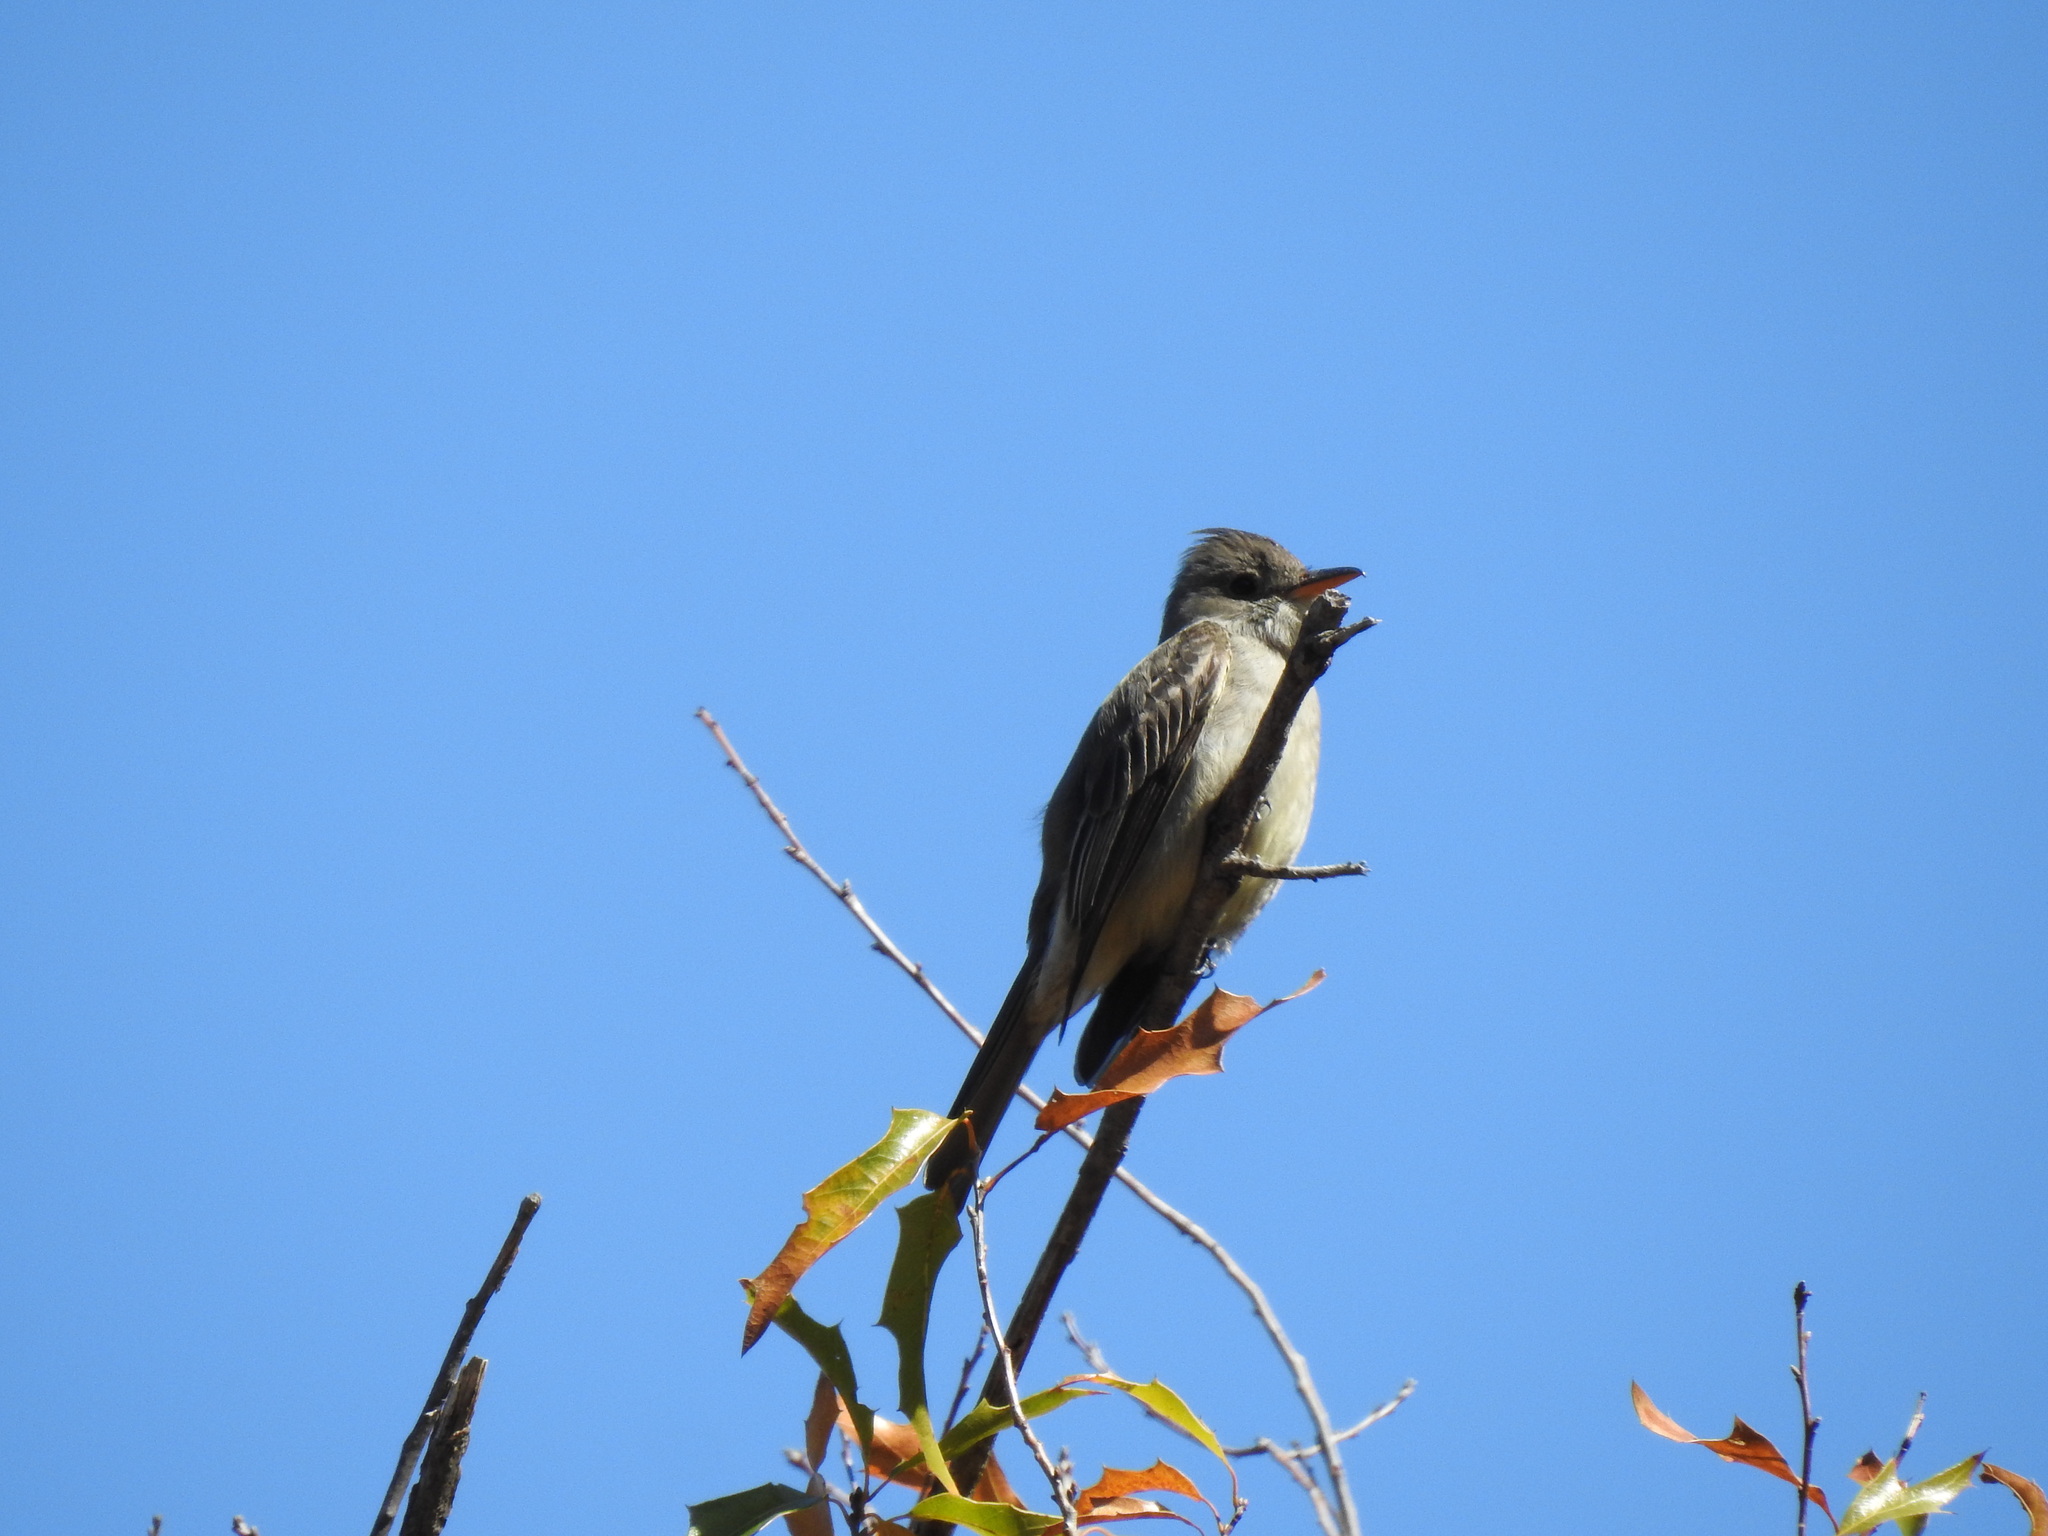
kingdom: Animalia
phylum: Chordata
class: Aves
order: Passeriformes
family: Tyrannidae
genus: Contopus
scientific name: Contopus pertinax
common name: Greater pewee
